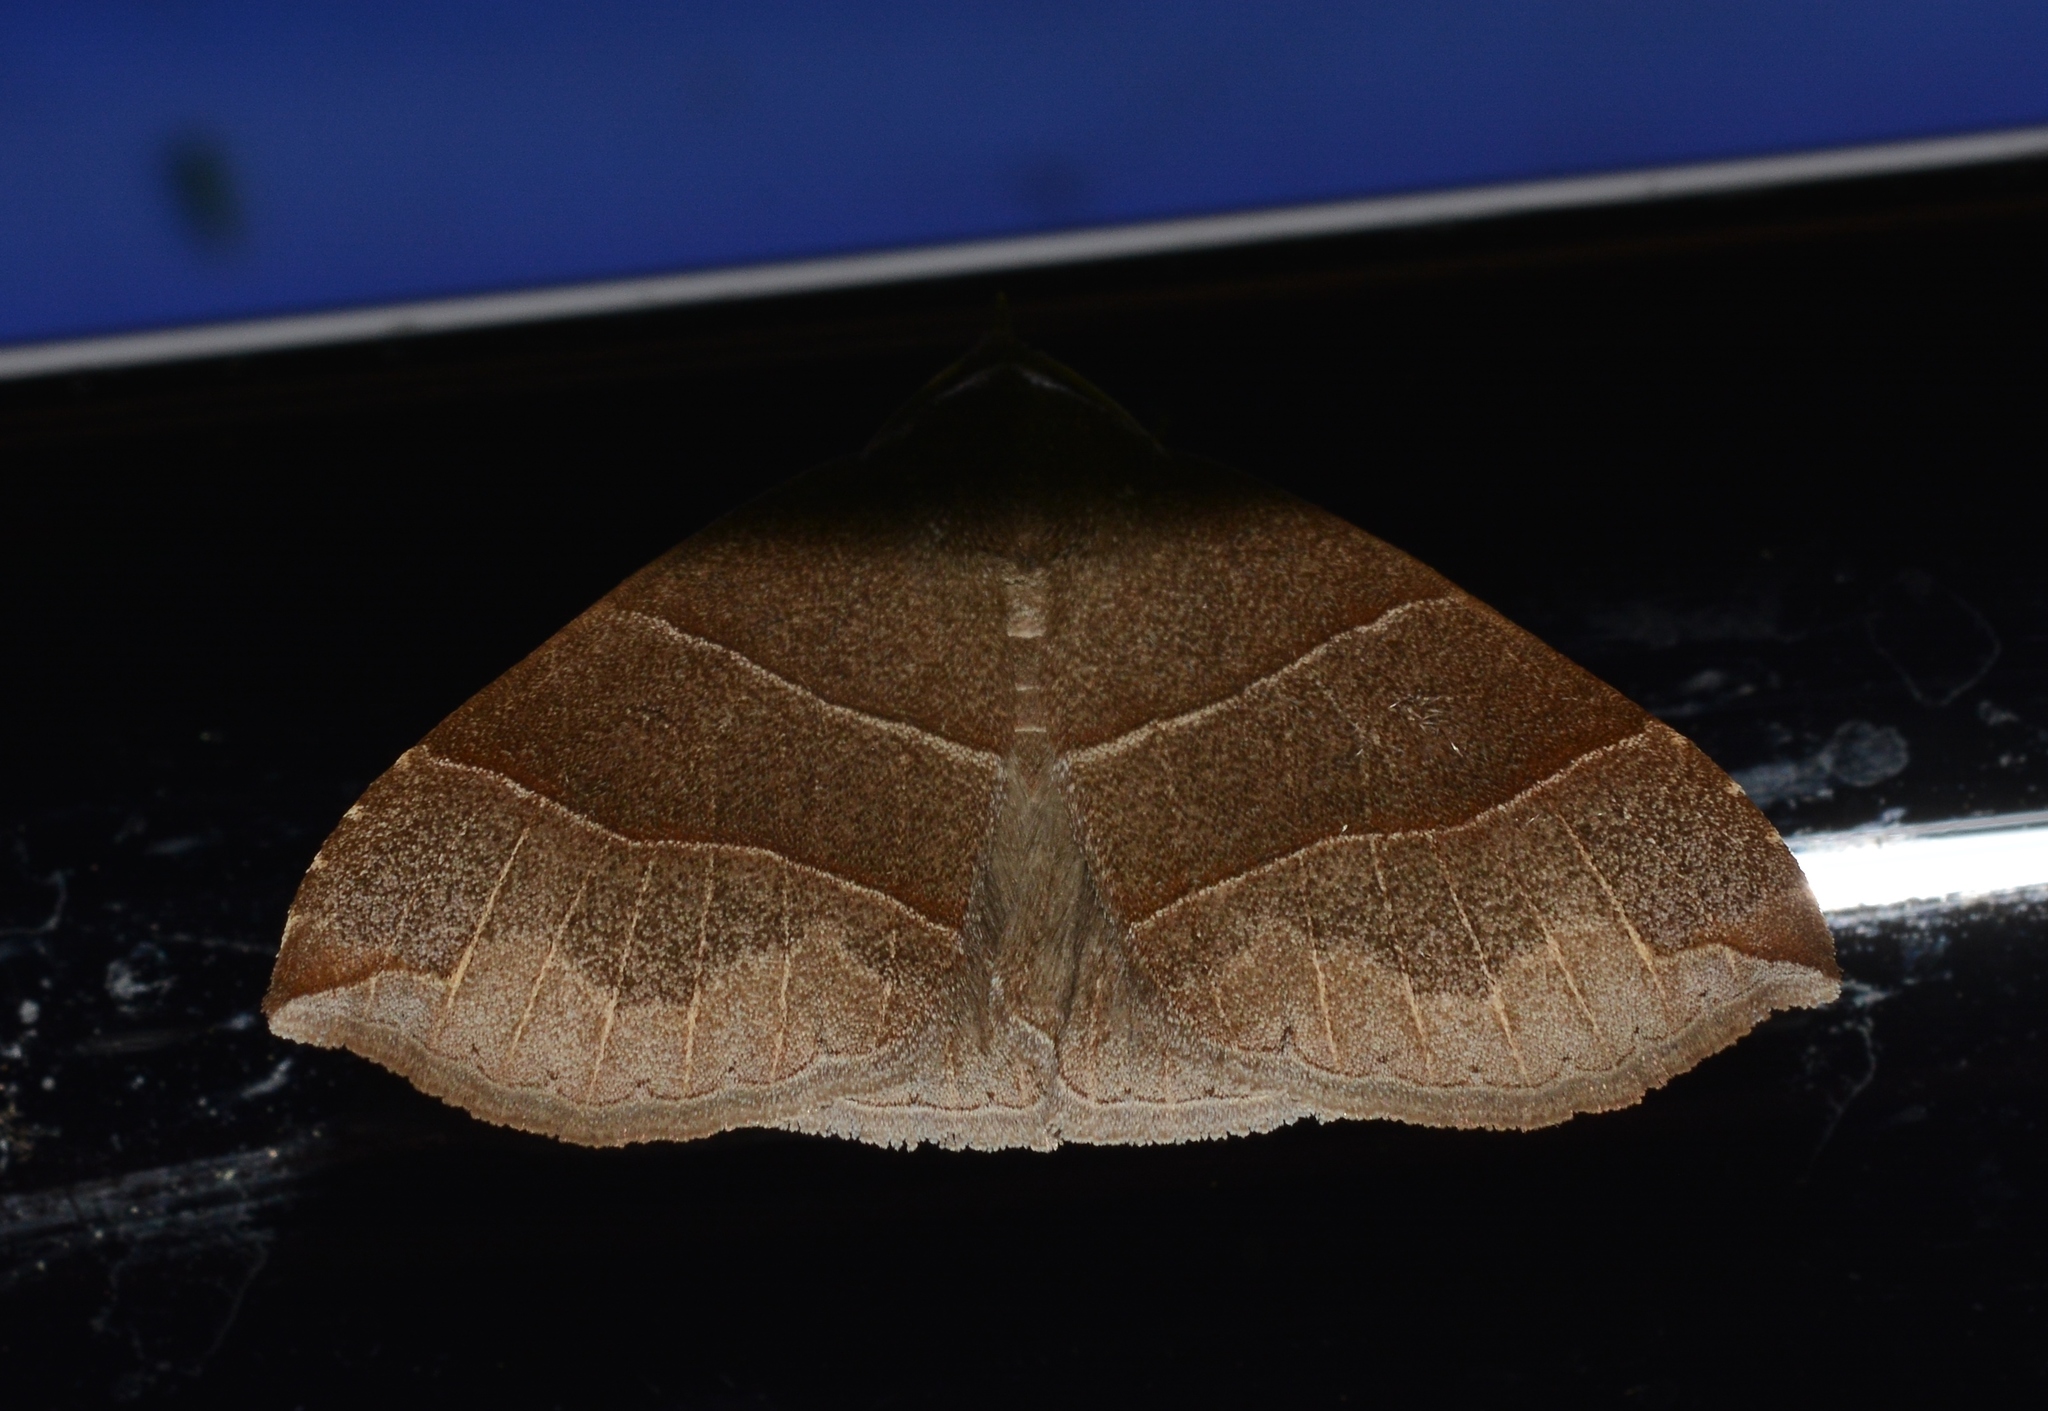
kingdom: Animalia
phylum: Arthropoda
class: Insecta
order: Lepidoptera
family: Erebidae
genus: Parallelia
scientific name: Parallelia bistriaris
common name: Maple looper moth
